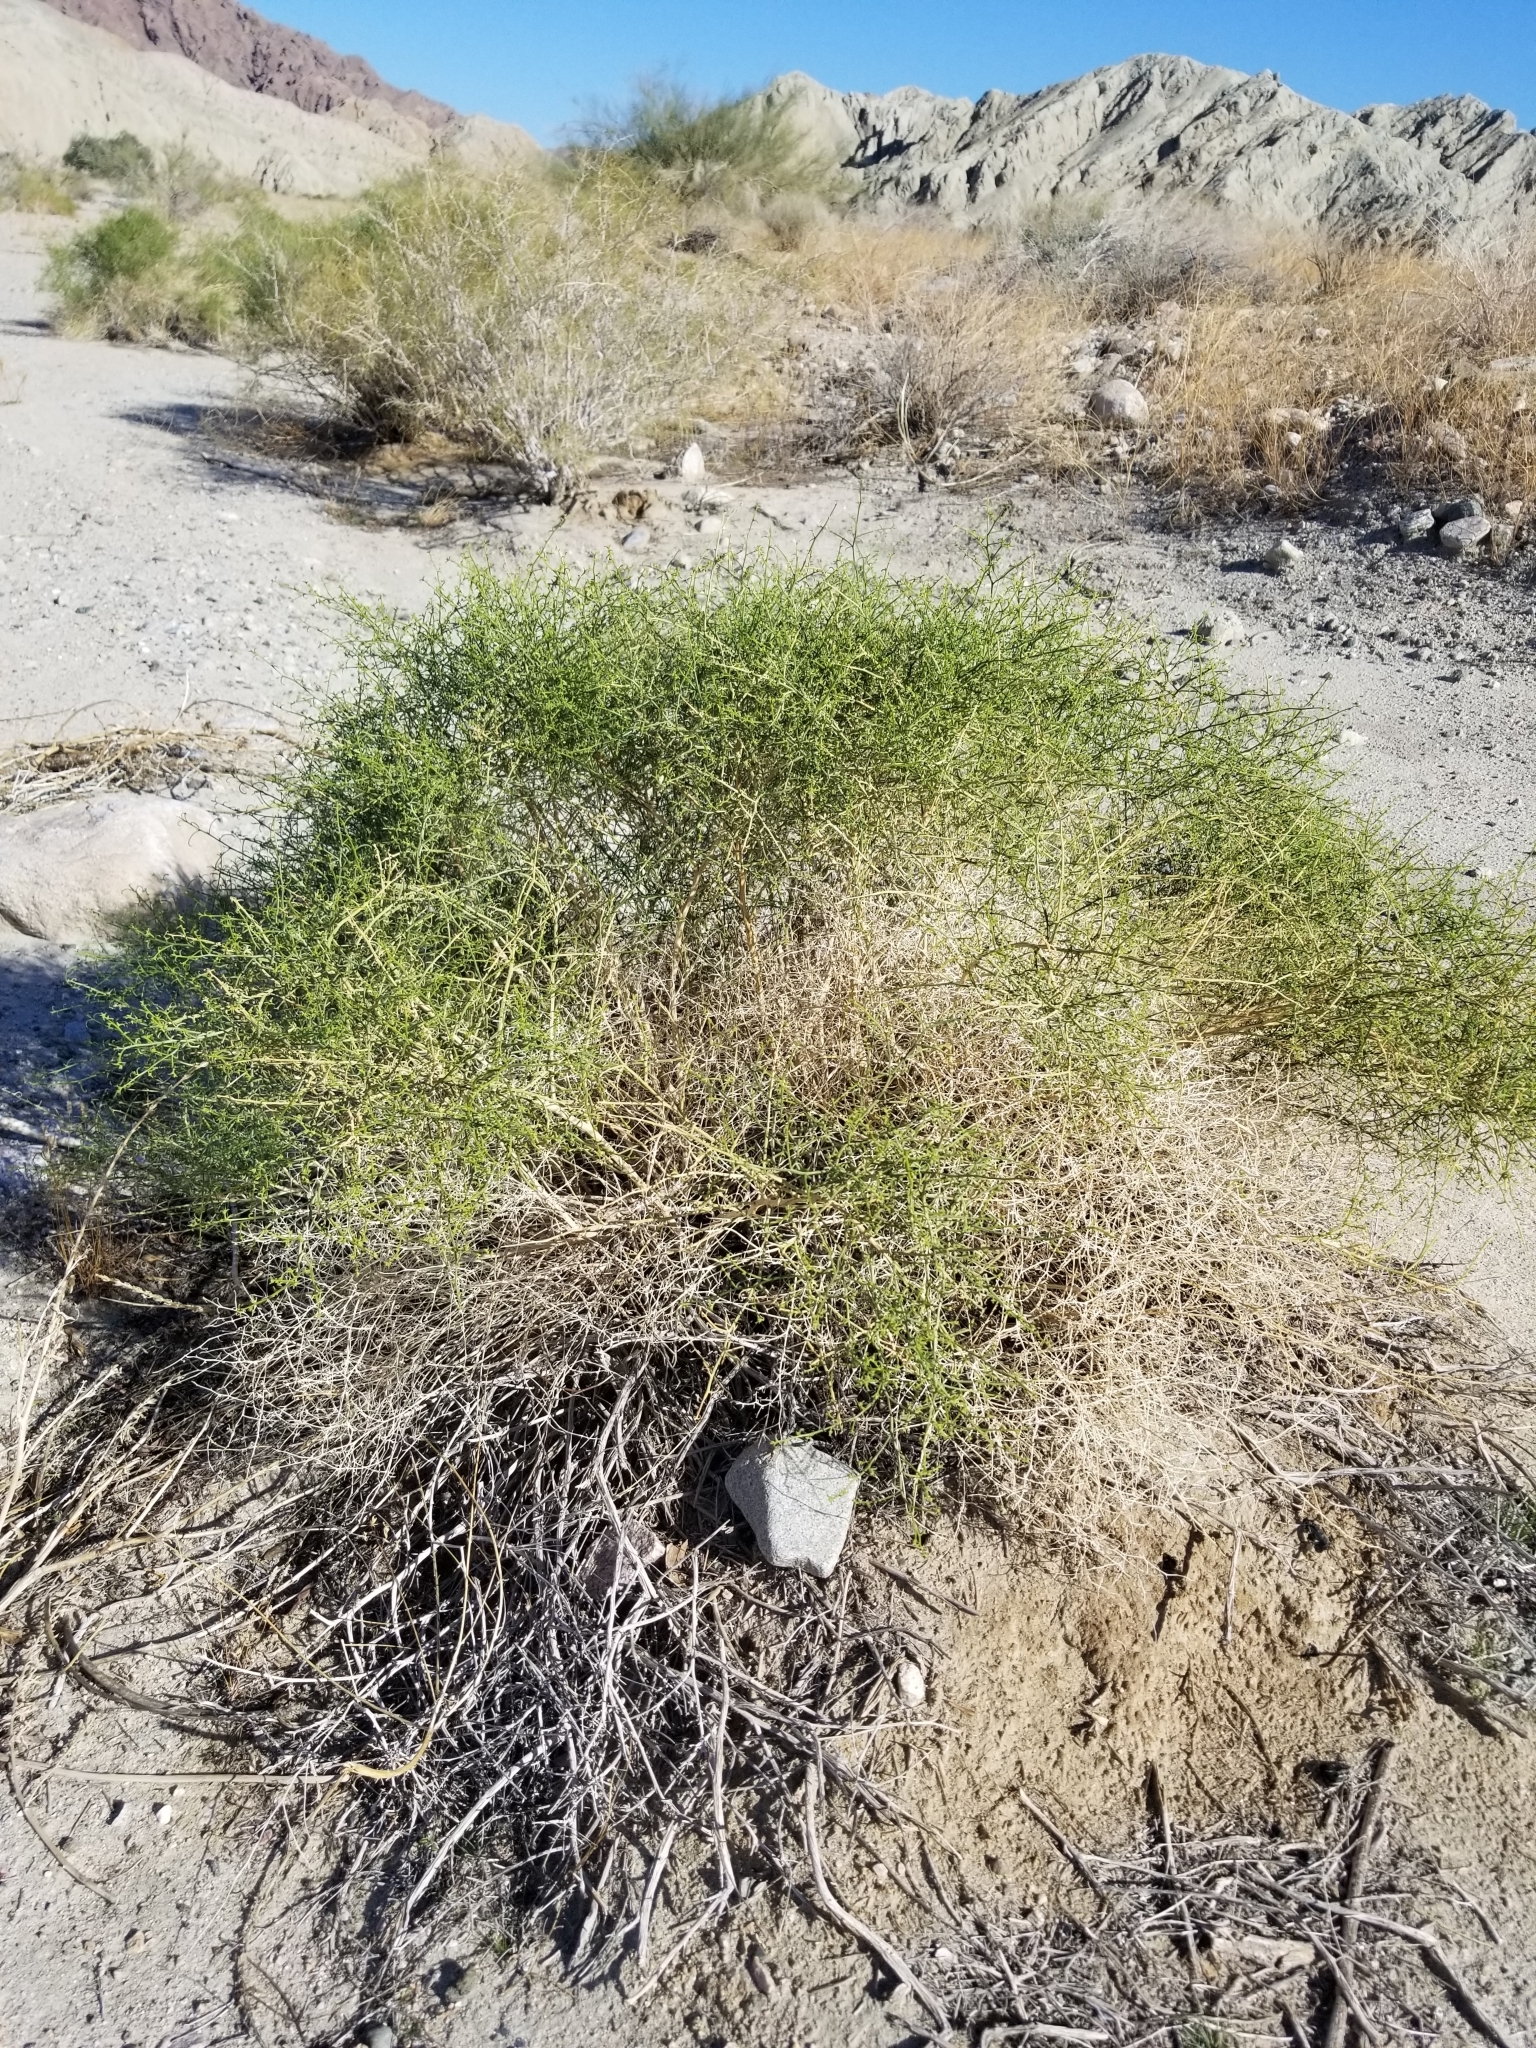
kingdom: Plantae
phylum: Tracheophyta
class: Magnoliopsida
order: Asterales
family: Asteraceae
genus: Ambrosia
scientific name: Ambrosia salsola
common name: Burrobrush
